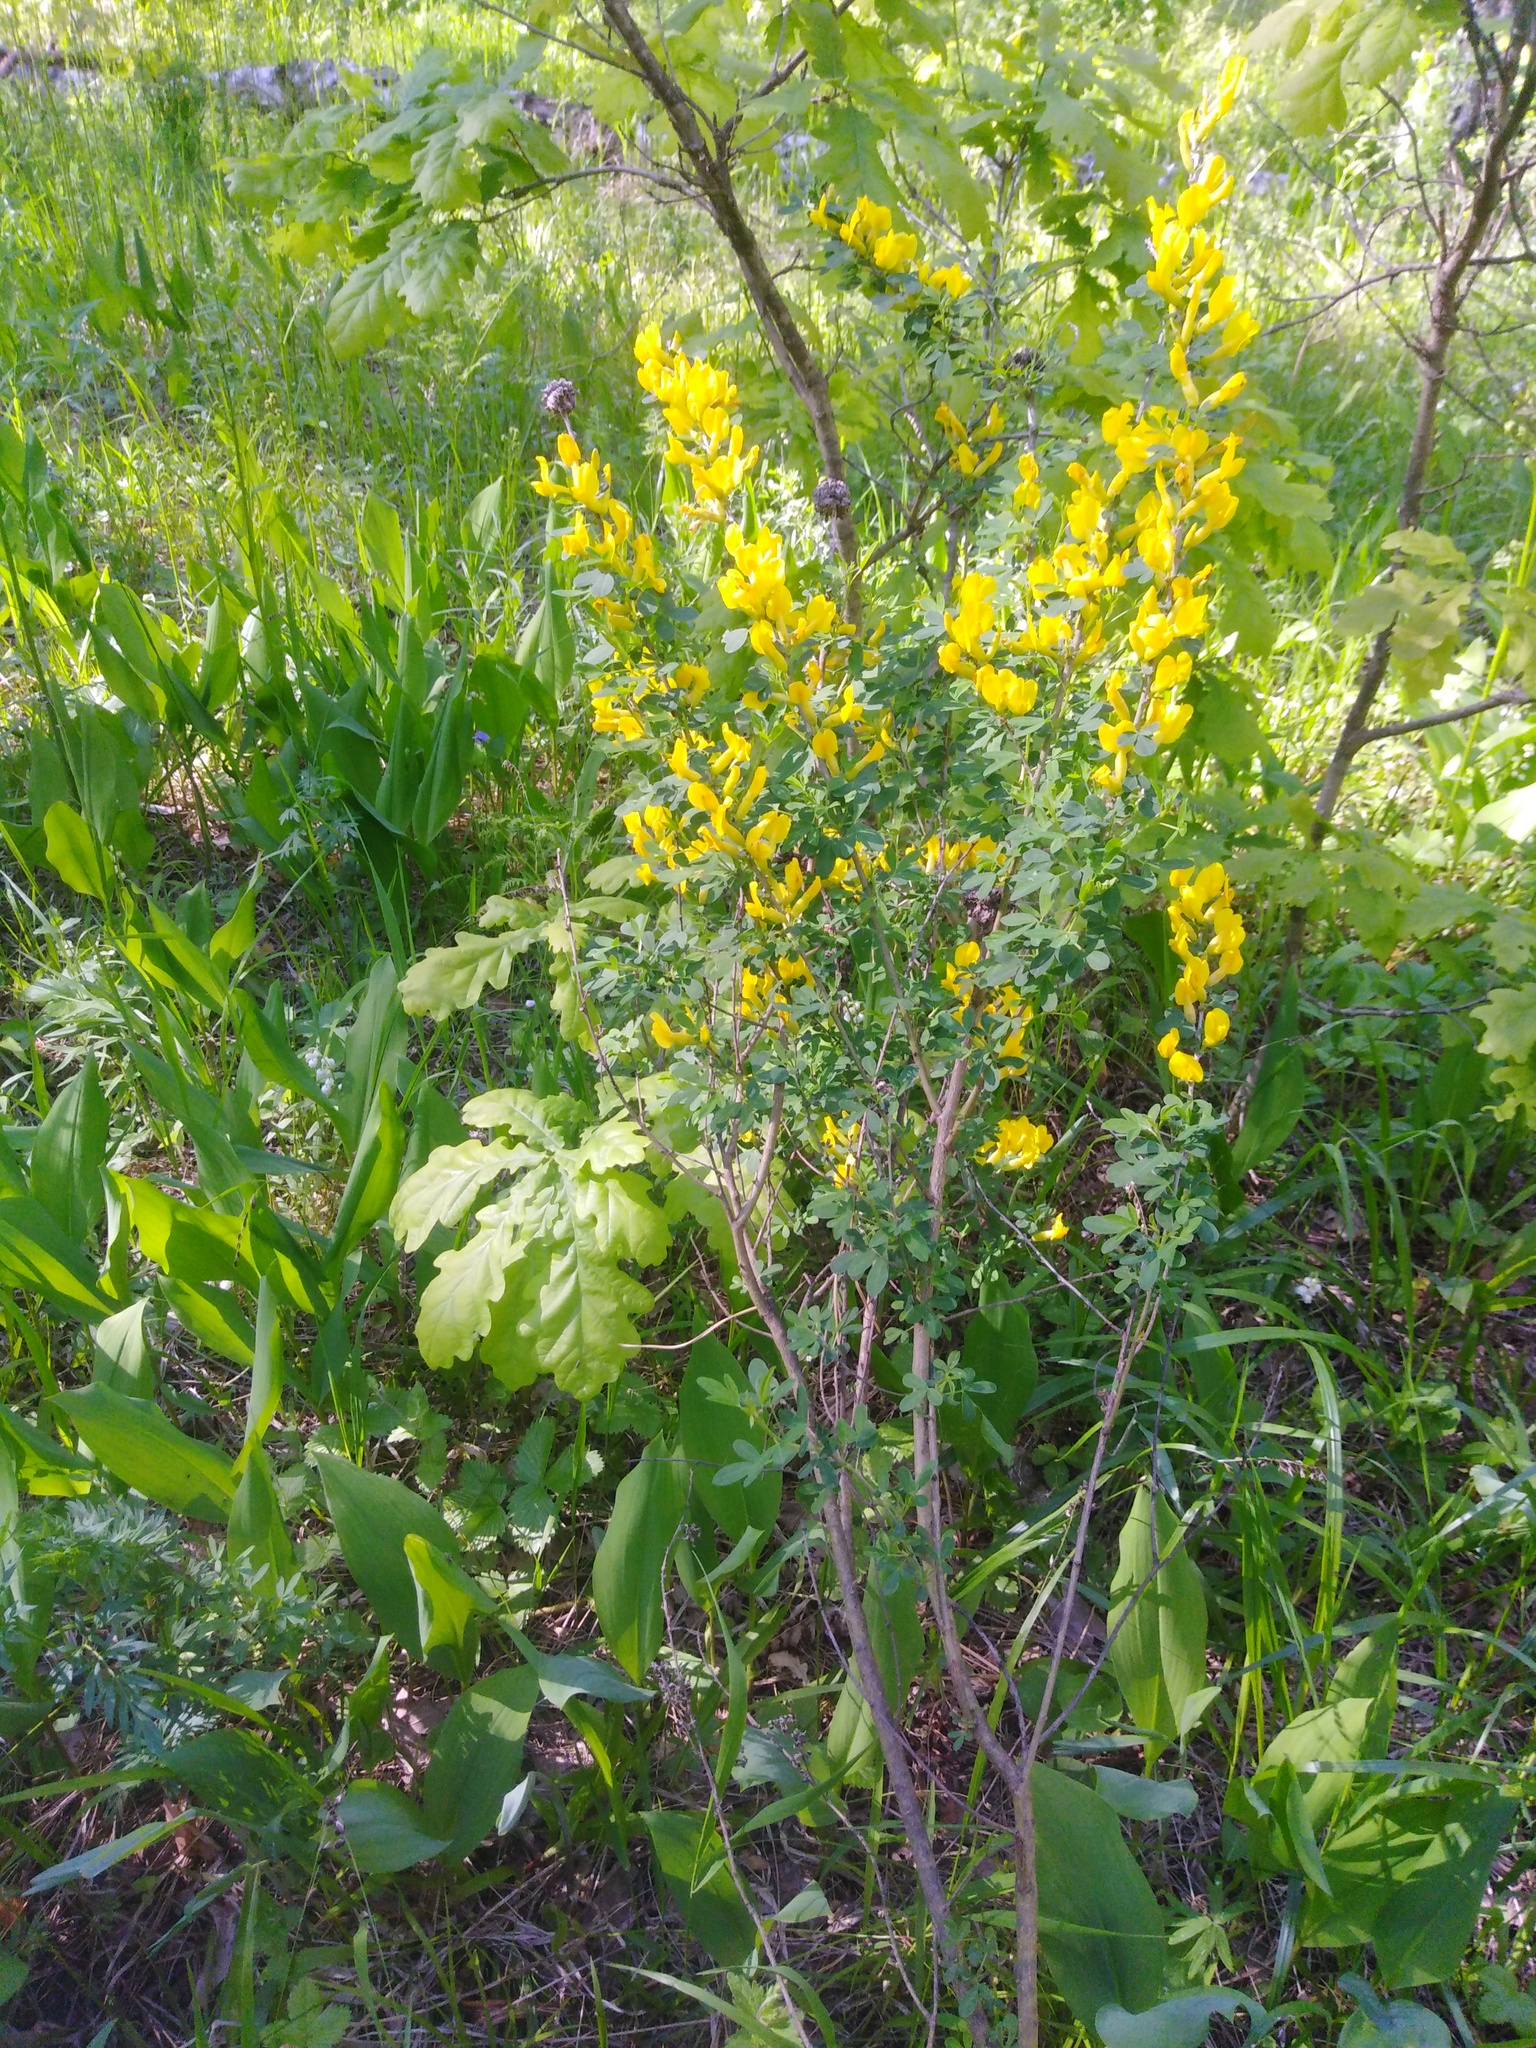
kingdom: Plantae
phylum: Tracheophyta
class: Magnoliopsida
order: Fabales
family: Fabaceae
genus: Chamaecytisus
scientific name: Chamaecytisus ruthenicus
